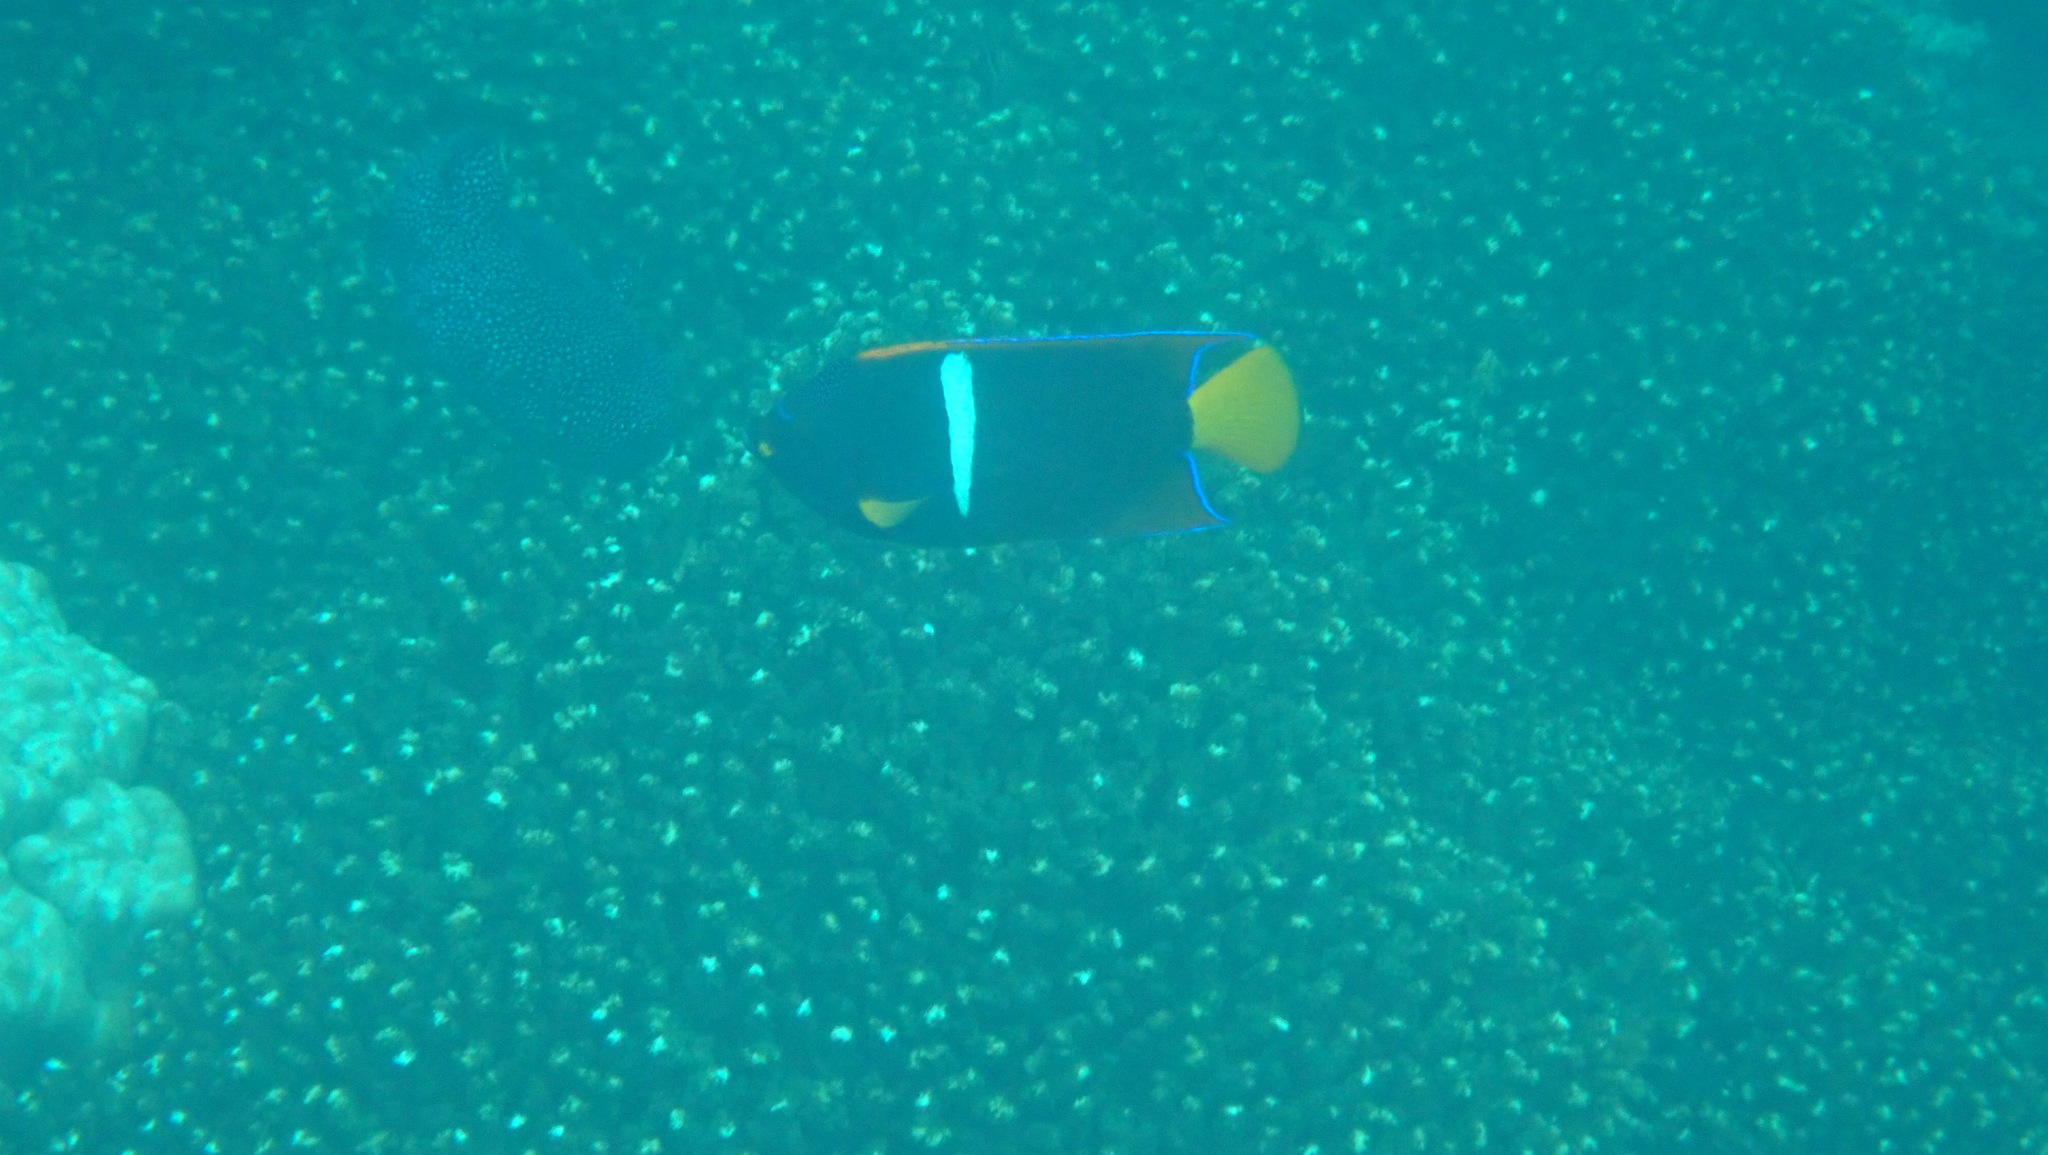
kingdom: Animalia
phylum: Chordata
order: Perciformes
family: Pomacanthidae
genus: Holacanthus
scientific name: Holacanthus passer
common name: King angelfish
